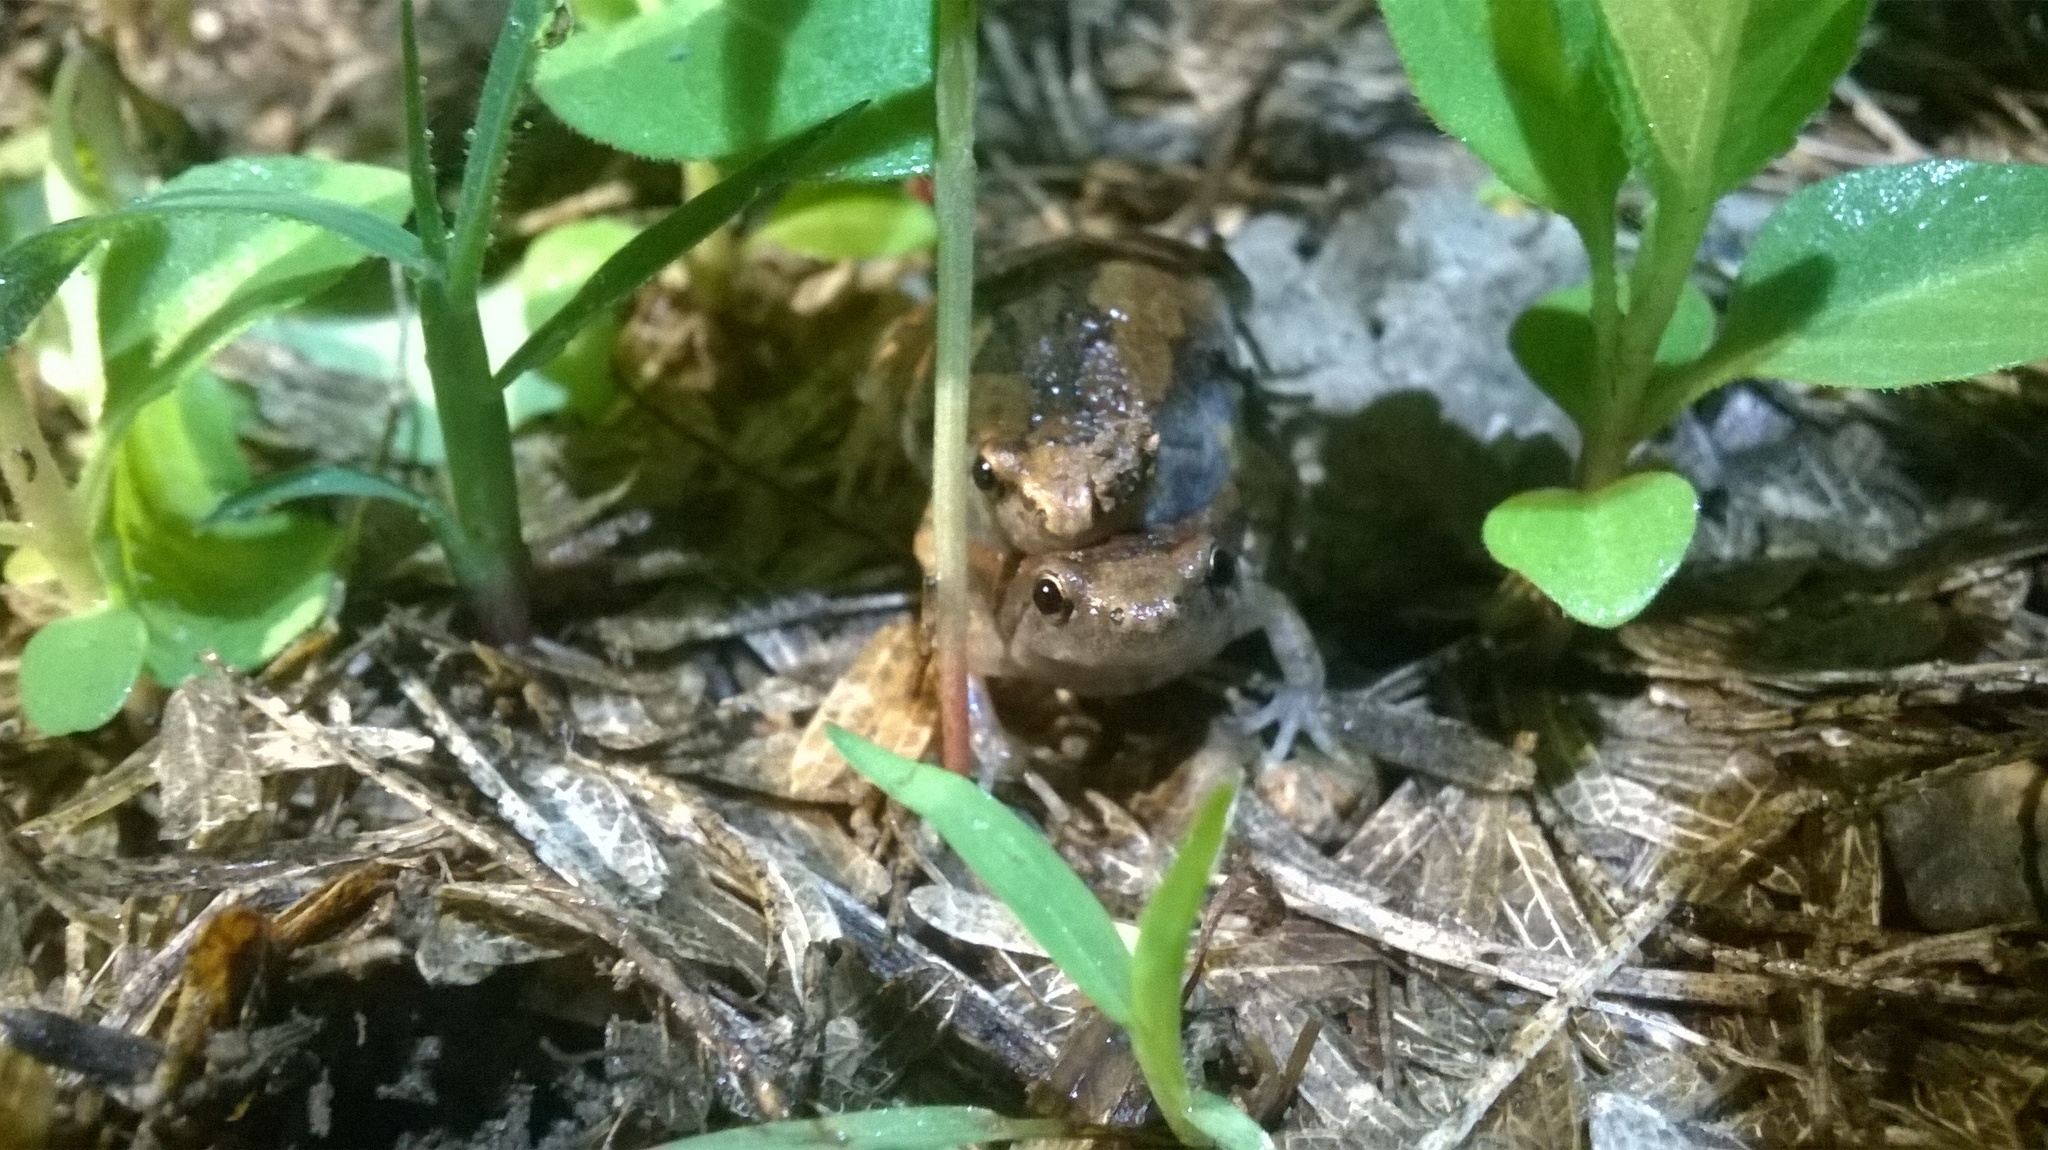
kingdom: Animalia
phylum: Chordata
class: Amphibia
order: Anura
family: Microhylidae
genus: Microhyla
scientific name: Microhyla ornata
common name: Ant frog
